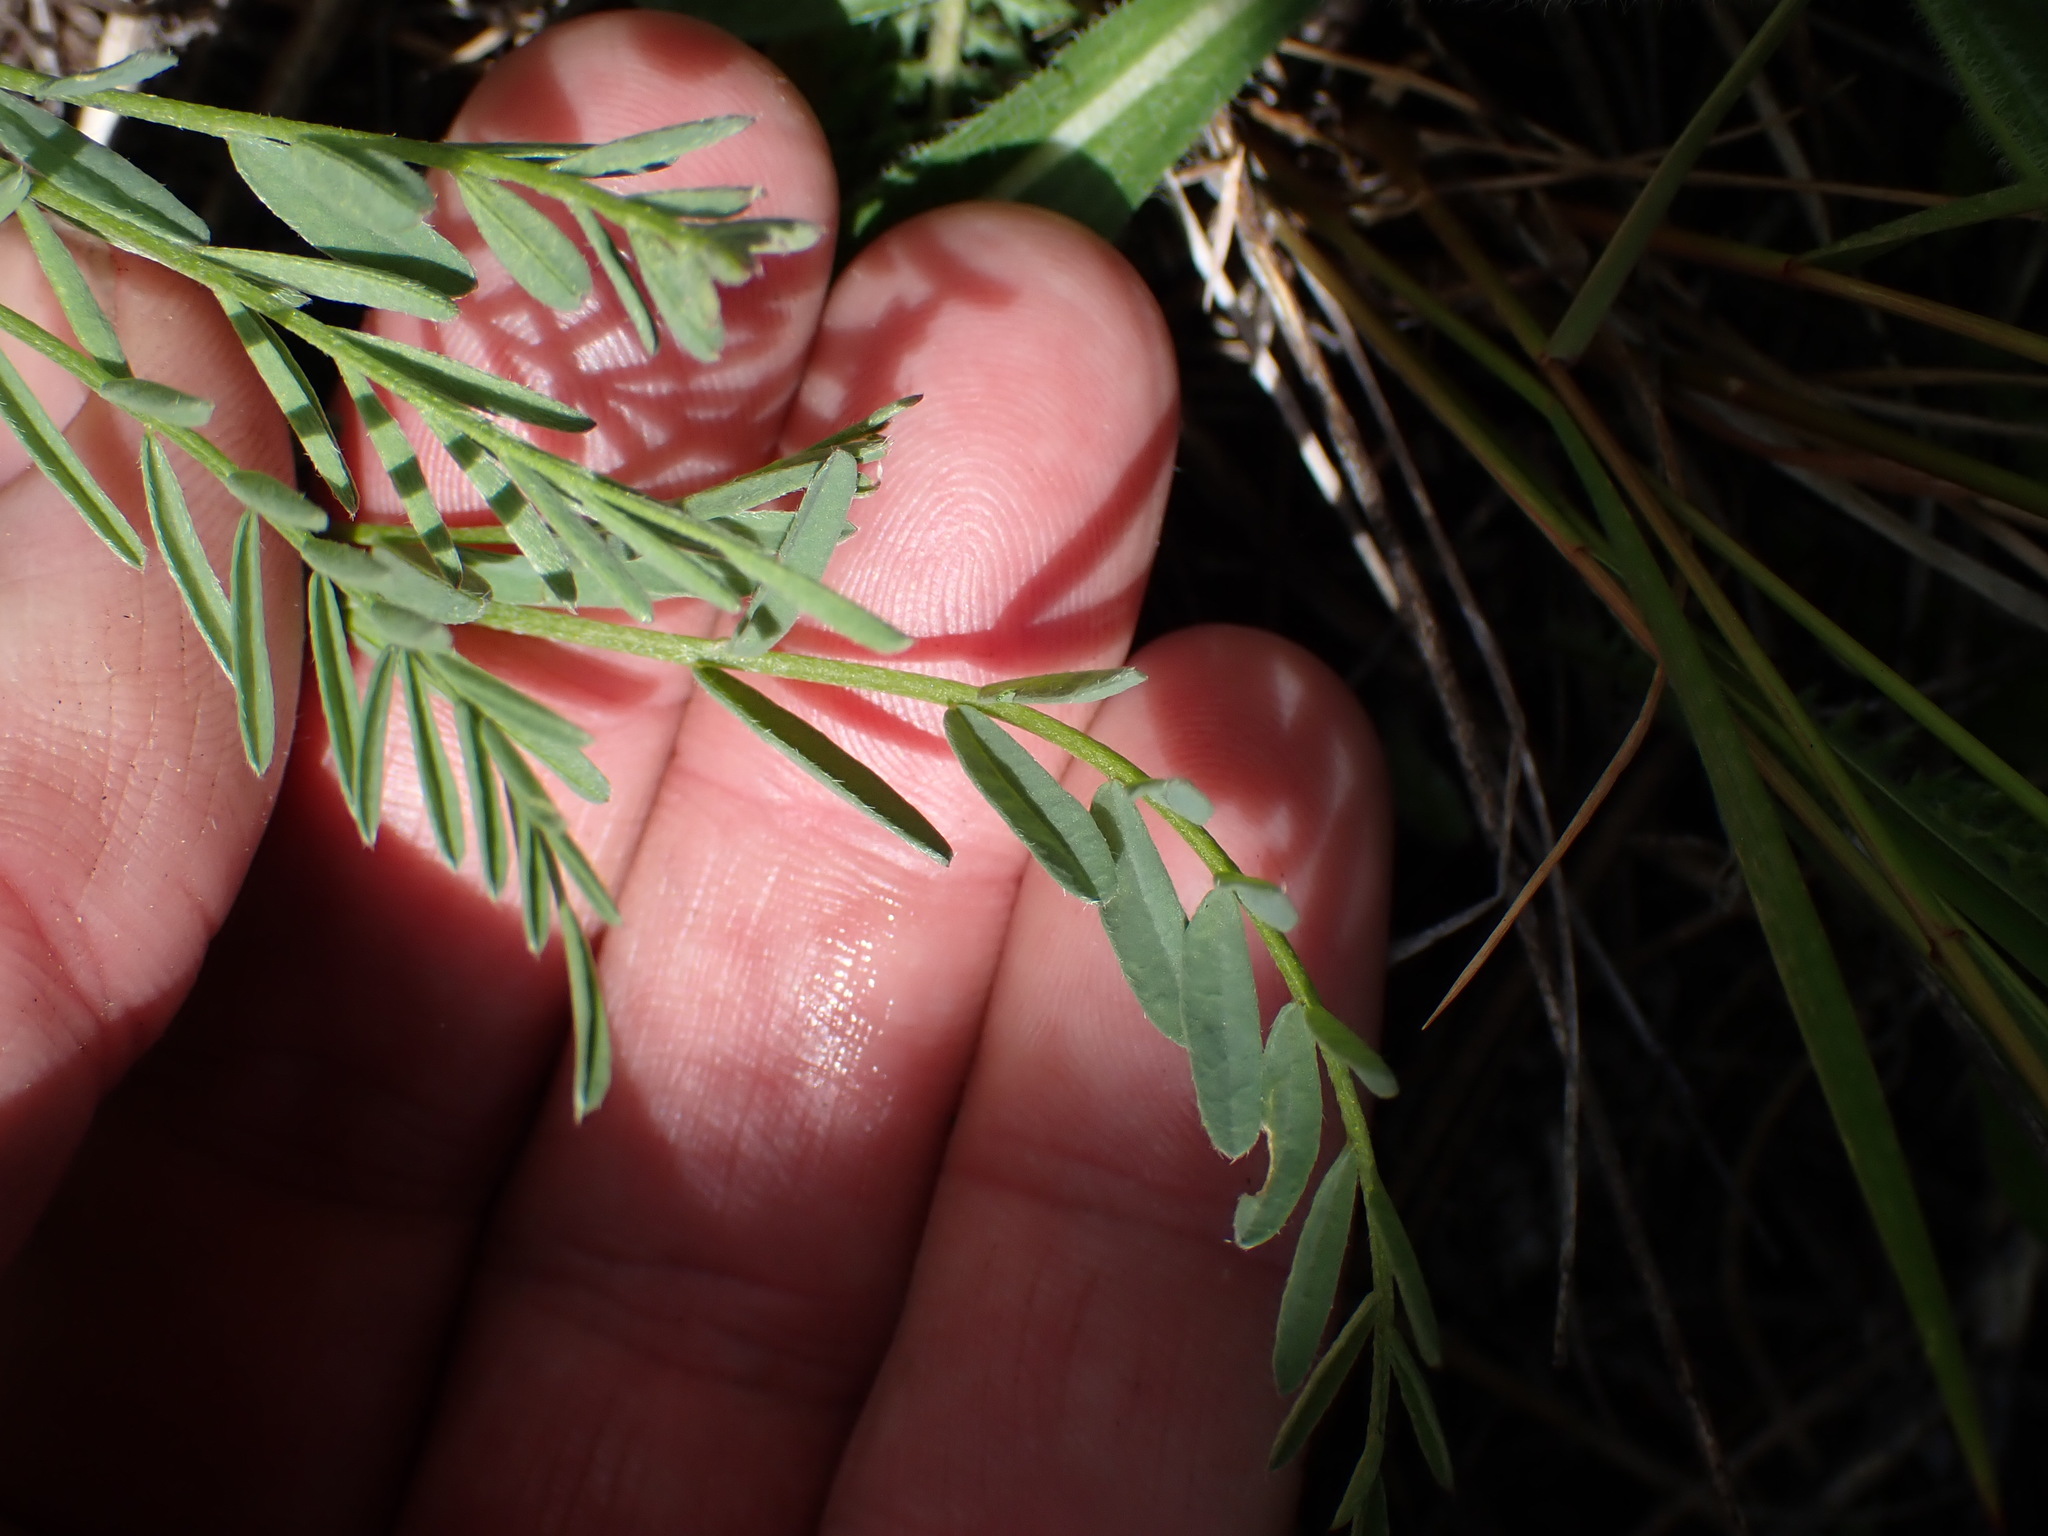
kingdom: Plantae
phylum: Tracheophyta
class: Magnoliopsida
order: Fabales
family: Fabaceae
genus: Astragalus
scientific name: Astragalus miser
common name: Timber milkvetch
